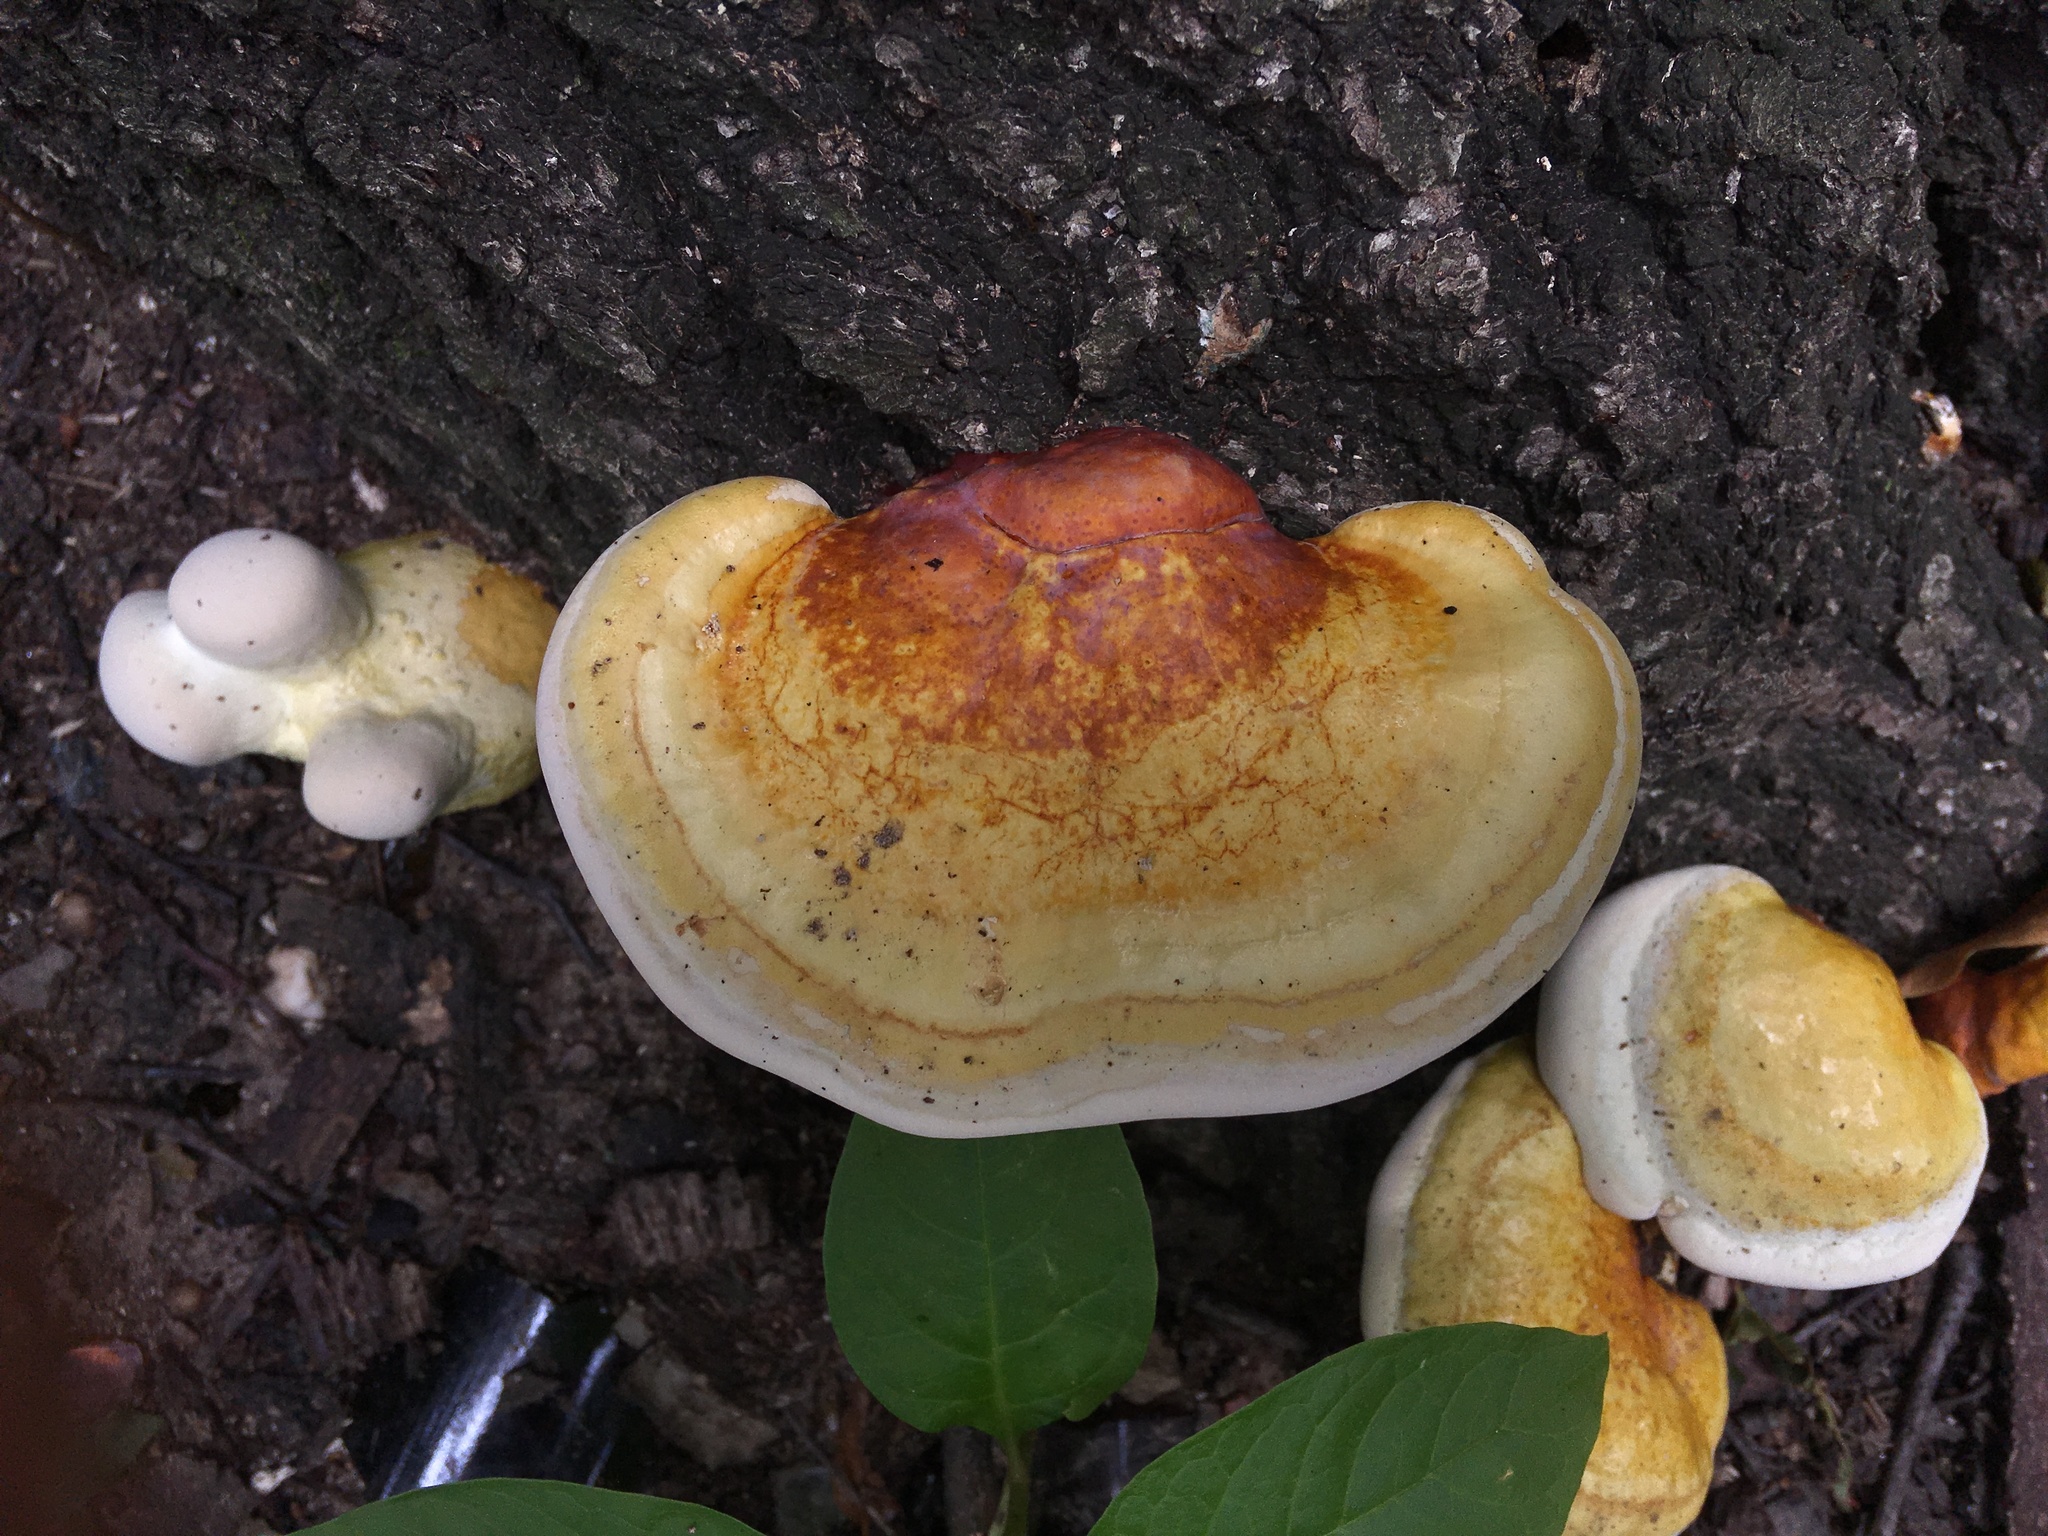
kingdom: Fungi
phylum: Basidiomycota
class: Agaricomycetes
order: Polyporales
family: Polyporaceae
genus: Ganoderma
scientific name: Ganoderma curtisii
